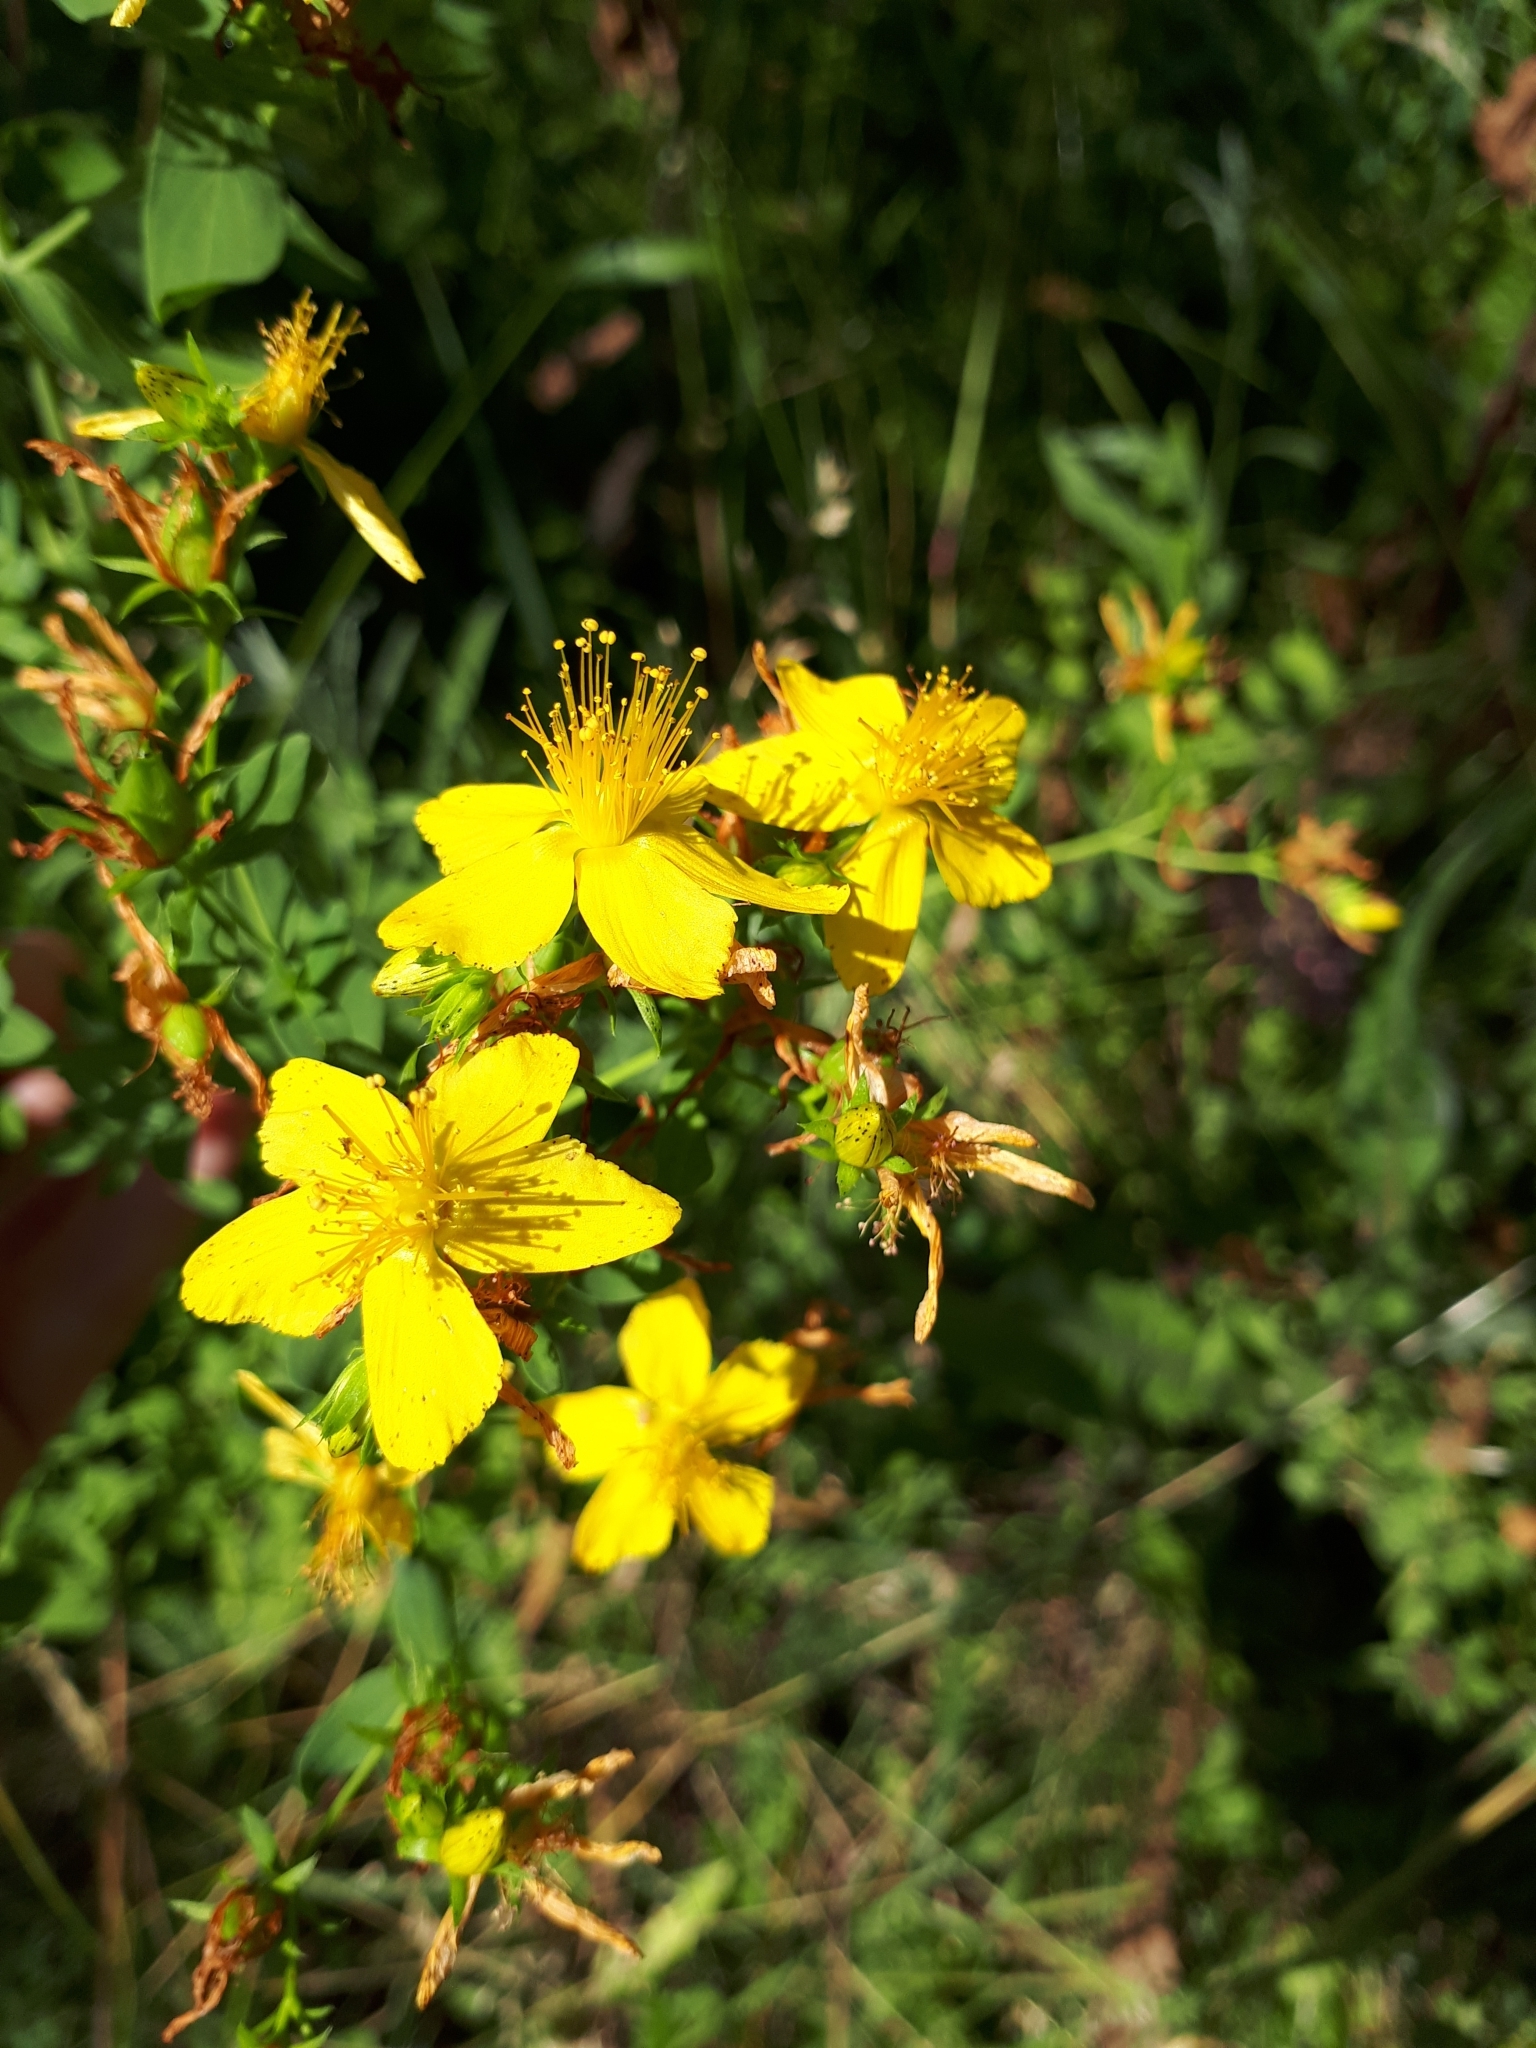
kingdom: Plantae
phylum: Tracheophyta
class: Magnoliopsida
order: Malpighiales
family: Hypericaceae
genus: Hypericum
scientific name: Hypericum perforatum
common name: Common st. johnswort
